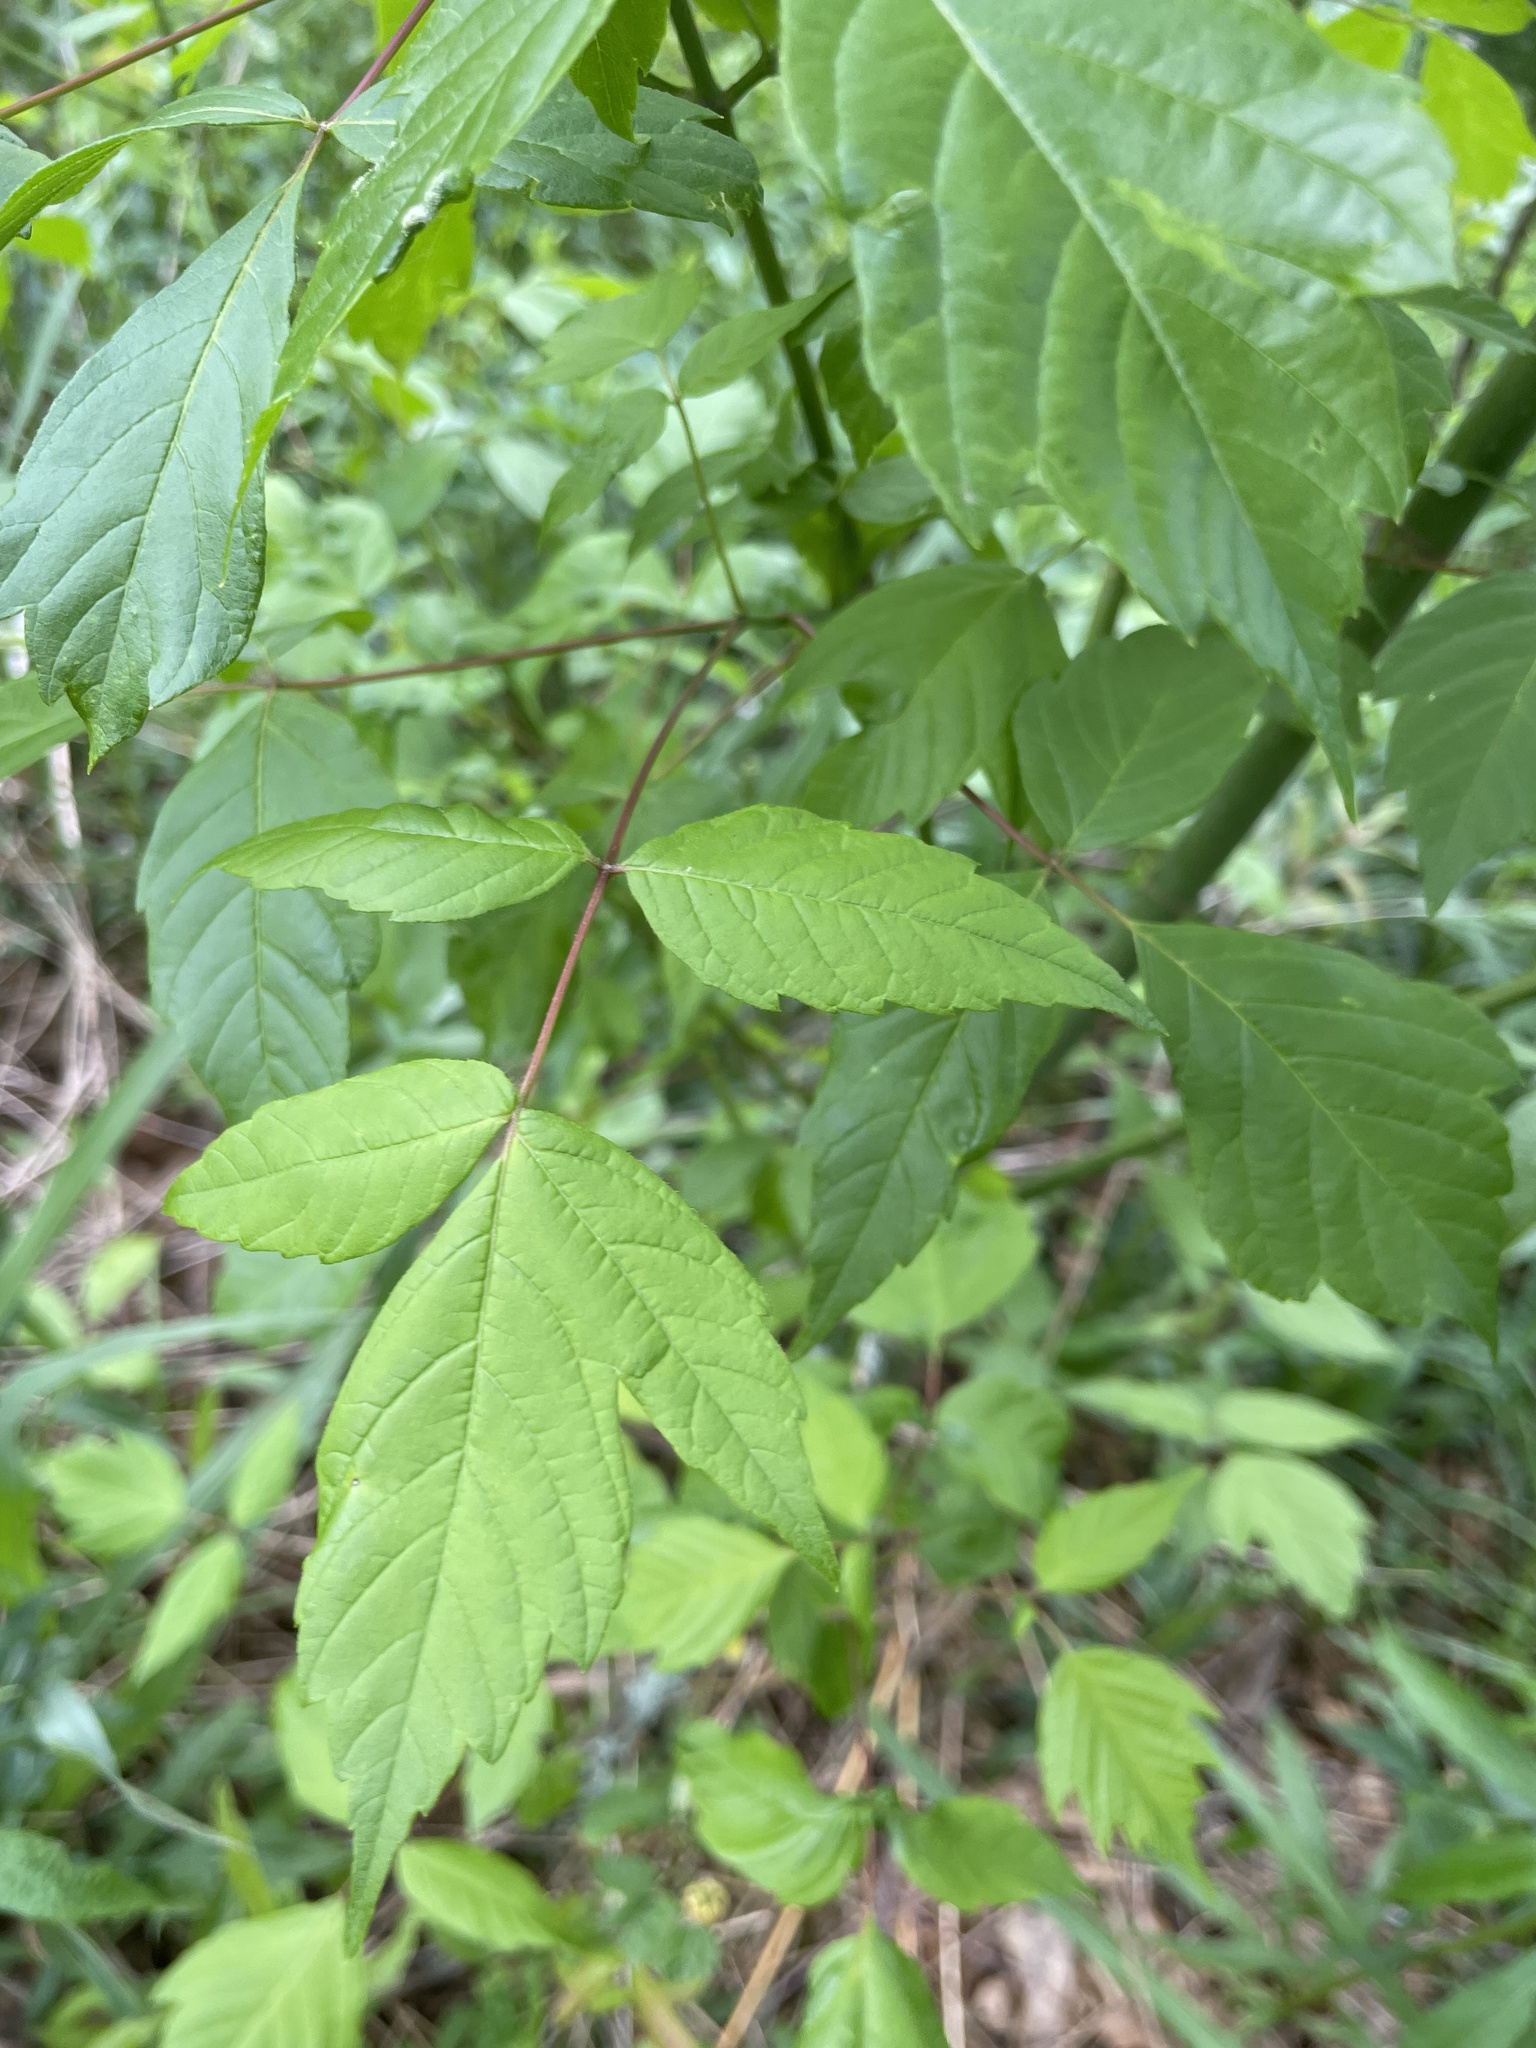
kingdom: Plantae
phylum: Tracheophyta
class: Magnoliopsida
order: Sapindales
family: Sapindaceae
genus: Acer
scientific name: Acer negundo
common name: Ashleaf maple
